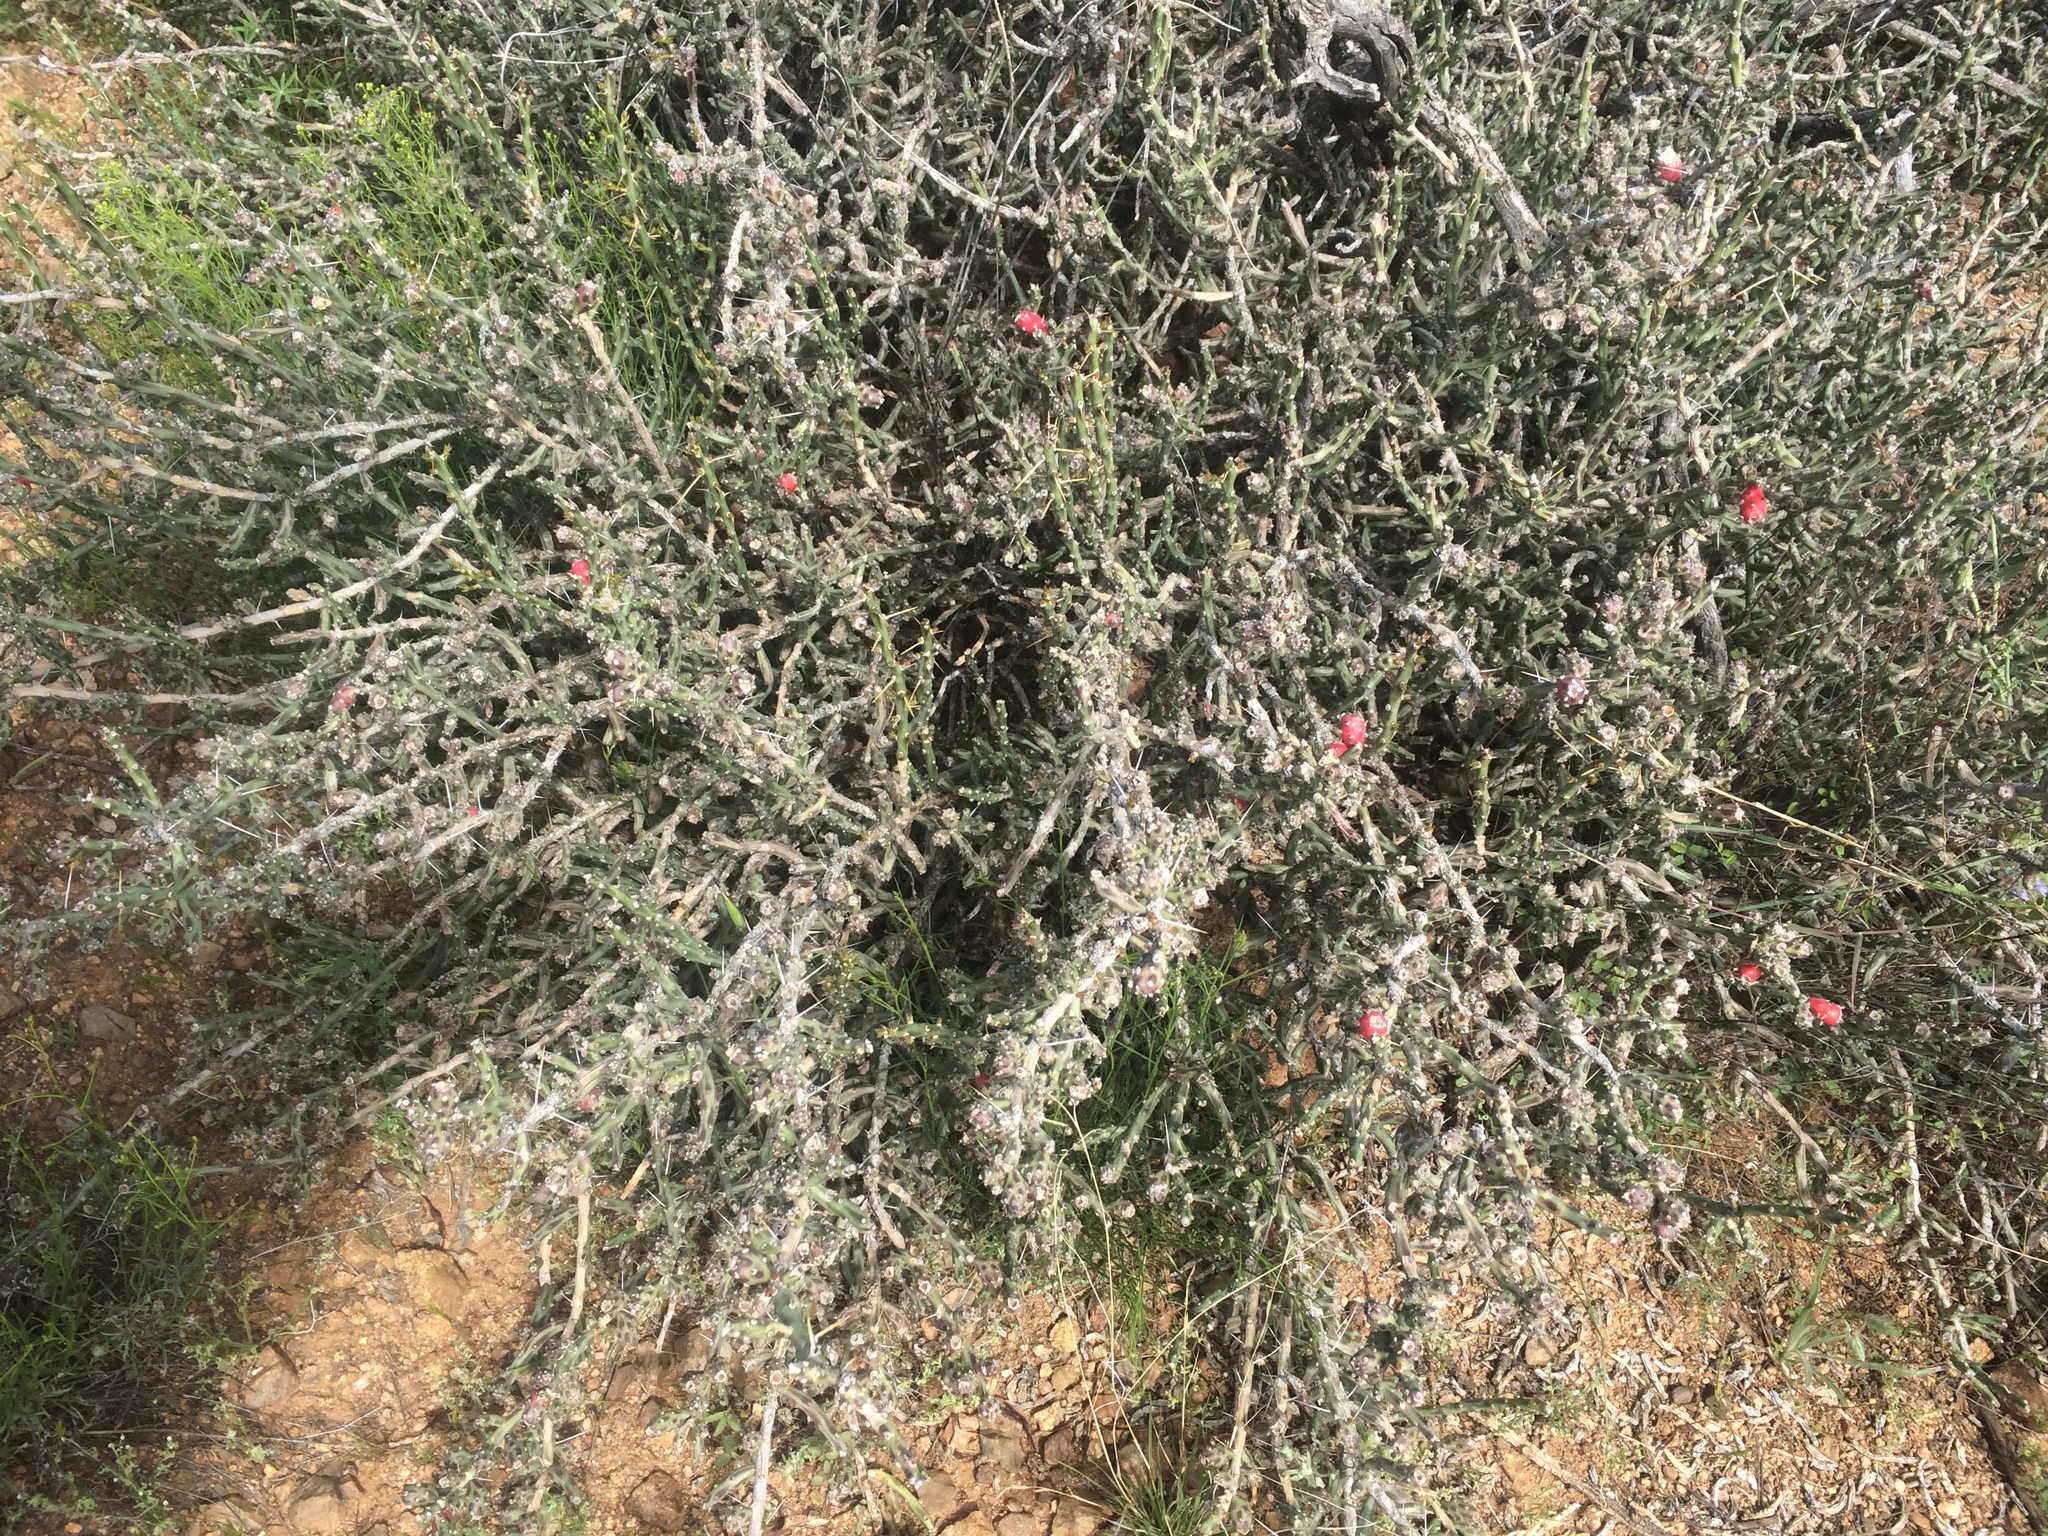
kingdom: Plantae
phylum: Tracheophyta
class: Magnoliopsida
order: Caryophyllales
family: Cactaceae
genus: Cylindropuntia
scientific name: Cylindropuntia leptocaulis
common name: Christmas cactus
